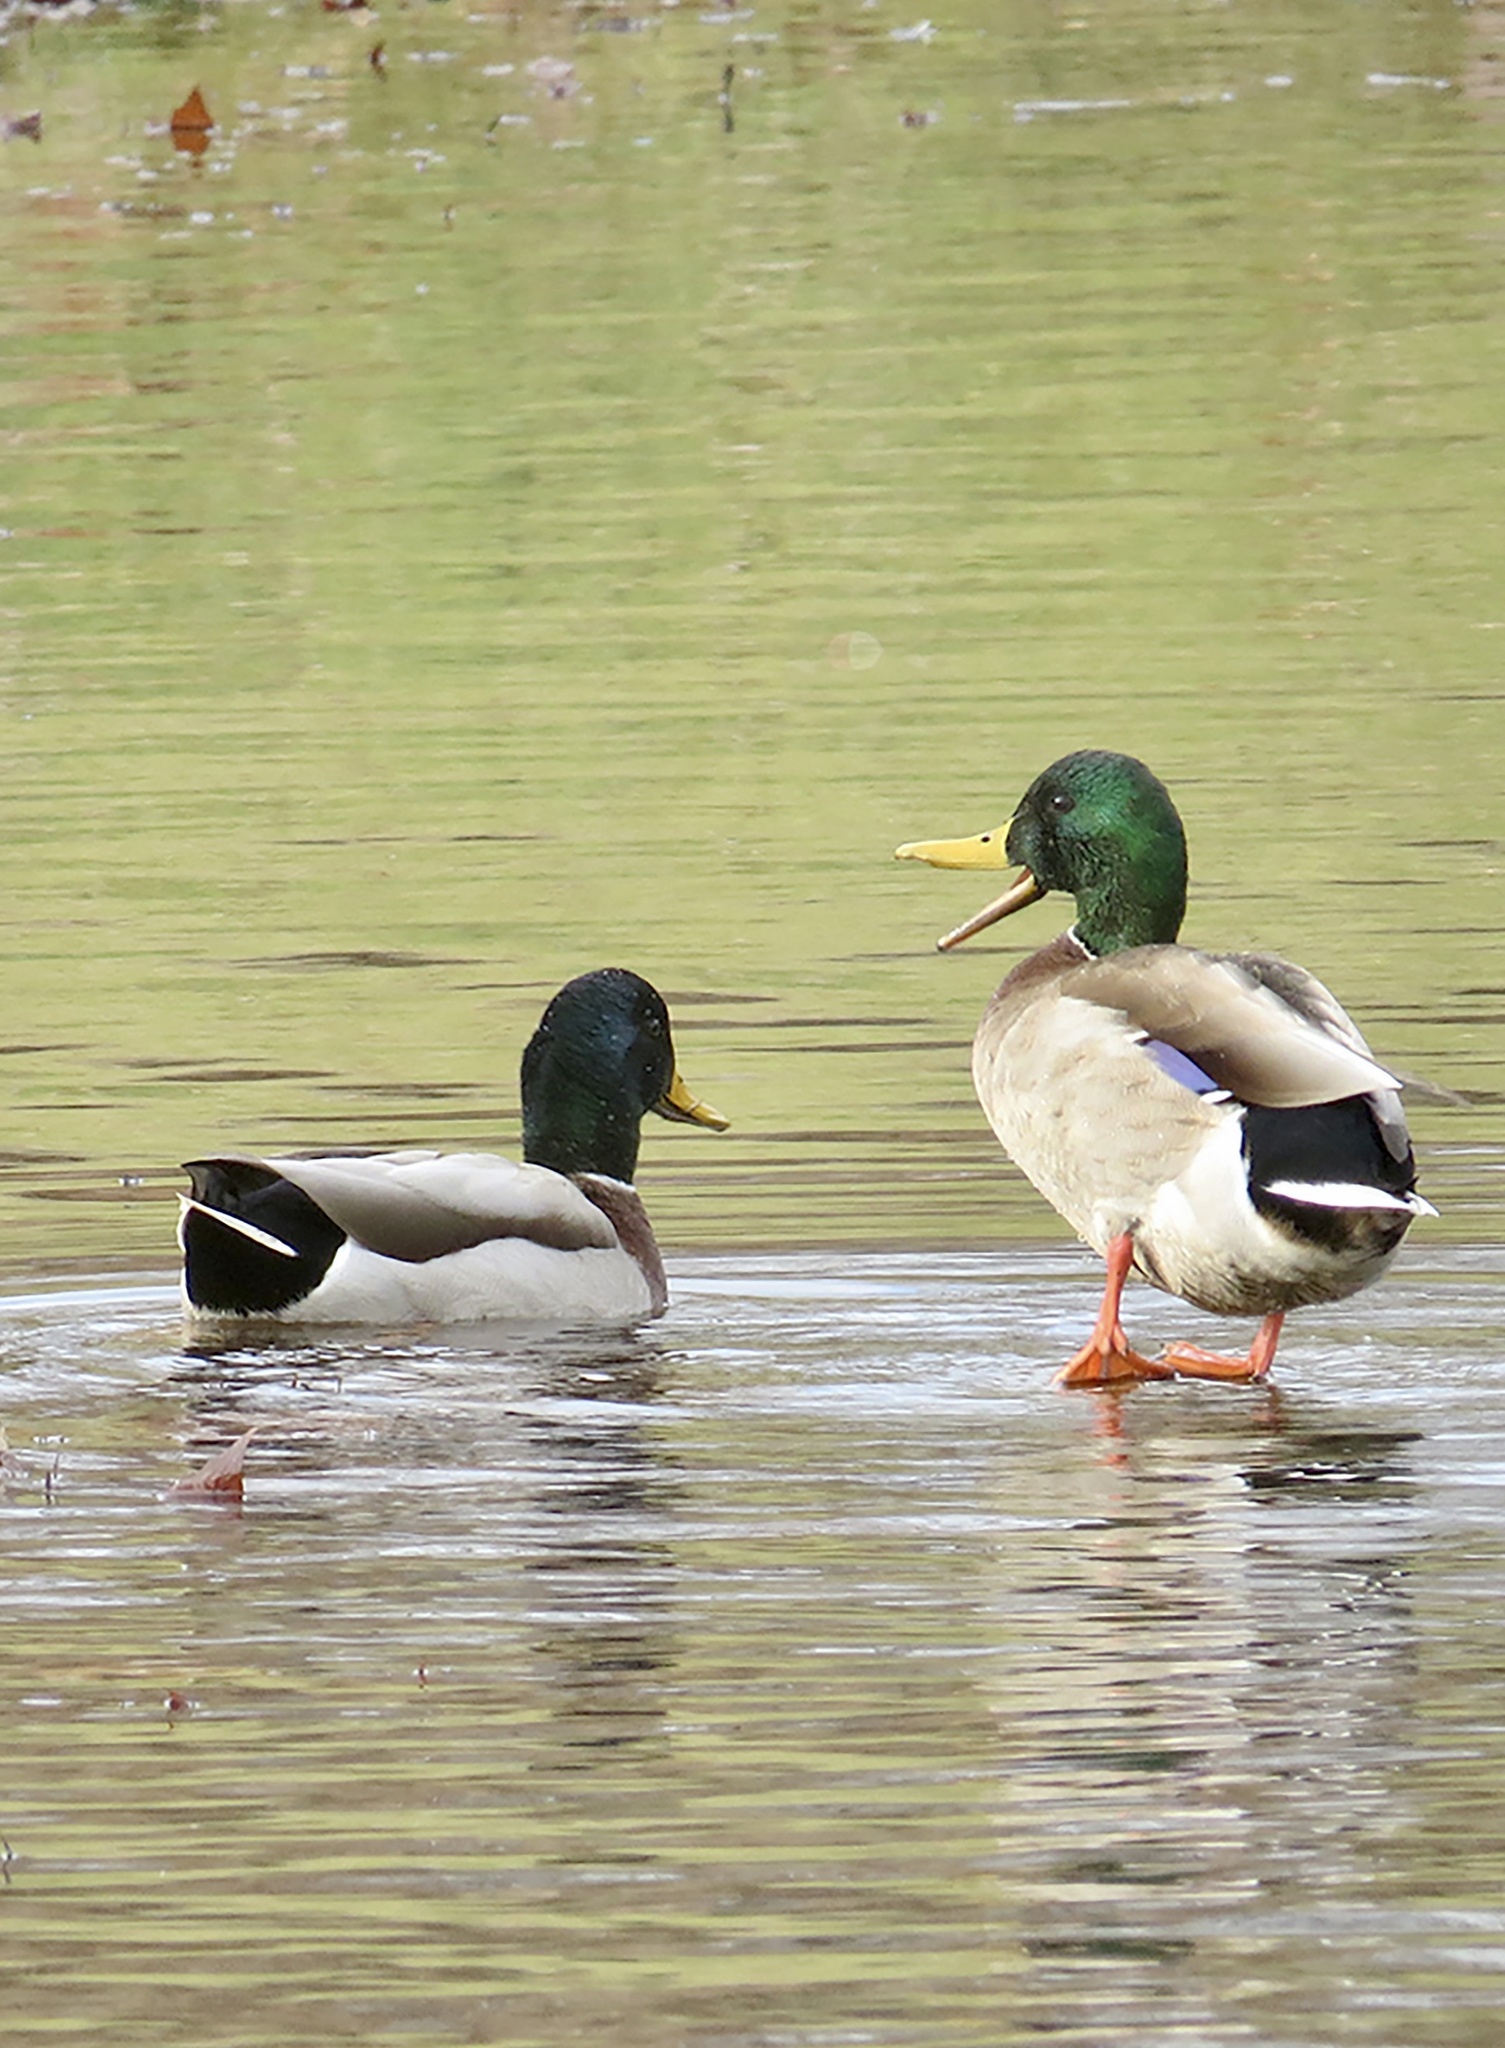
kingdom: Animalia
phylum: Chordata
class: Aves
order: Anseriformes
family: Anatidae
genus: Anas
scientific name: Anas platyrhynchos
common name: Mallard
